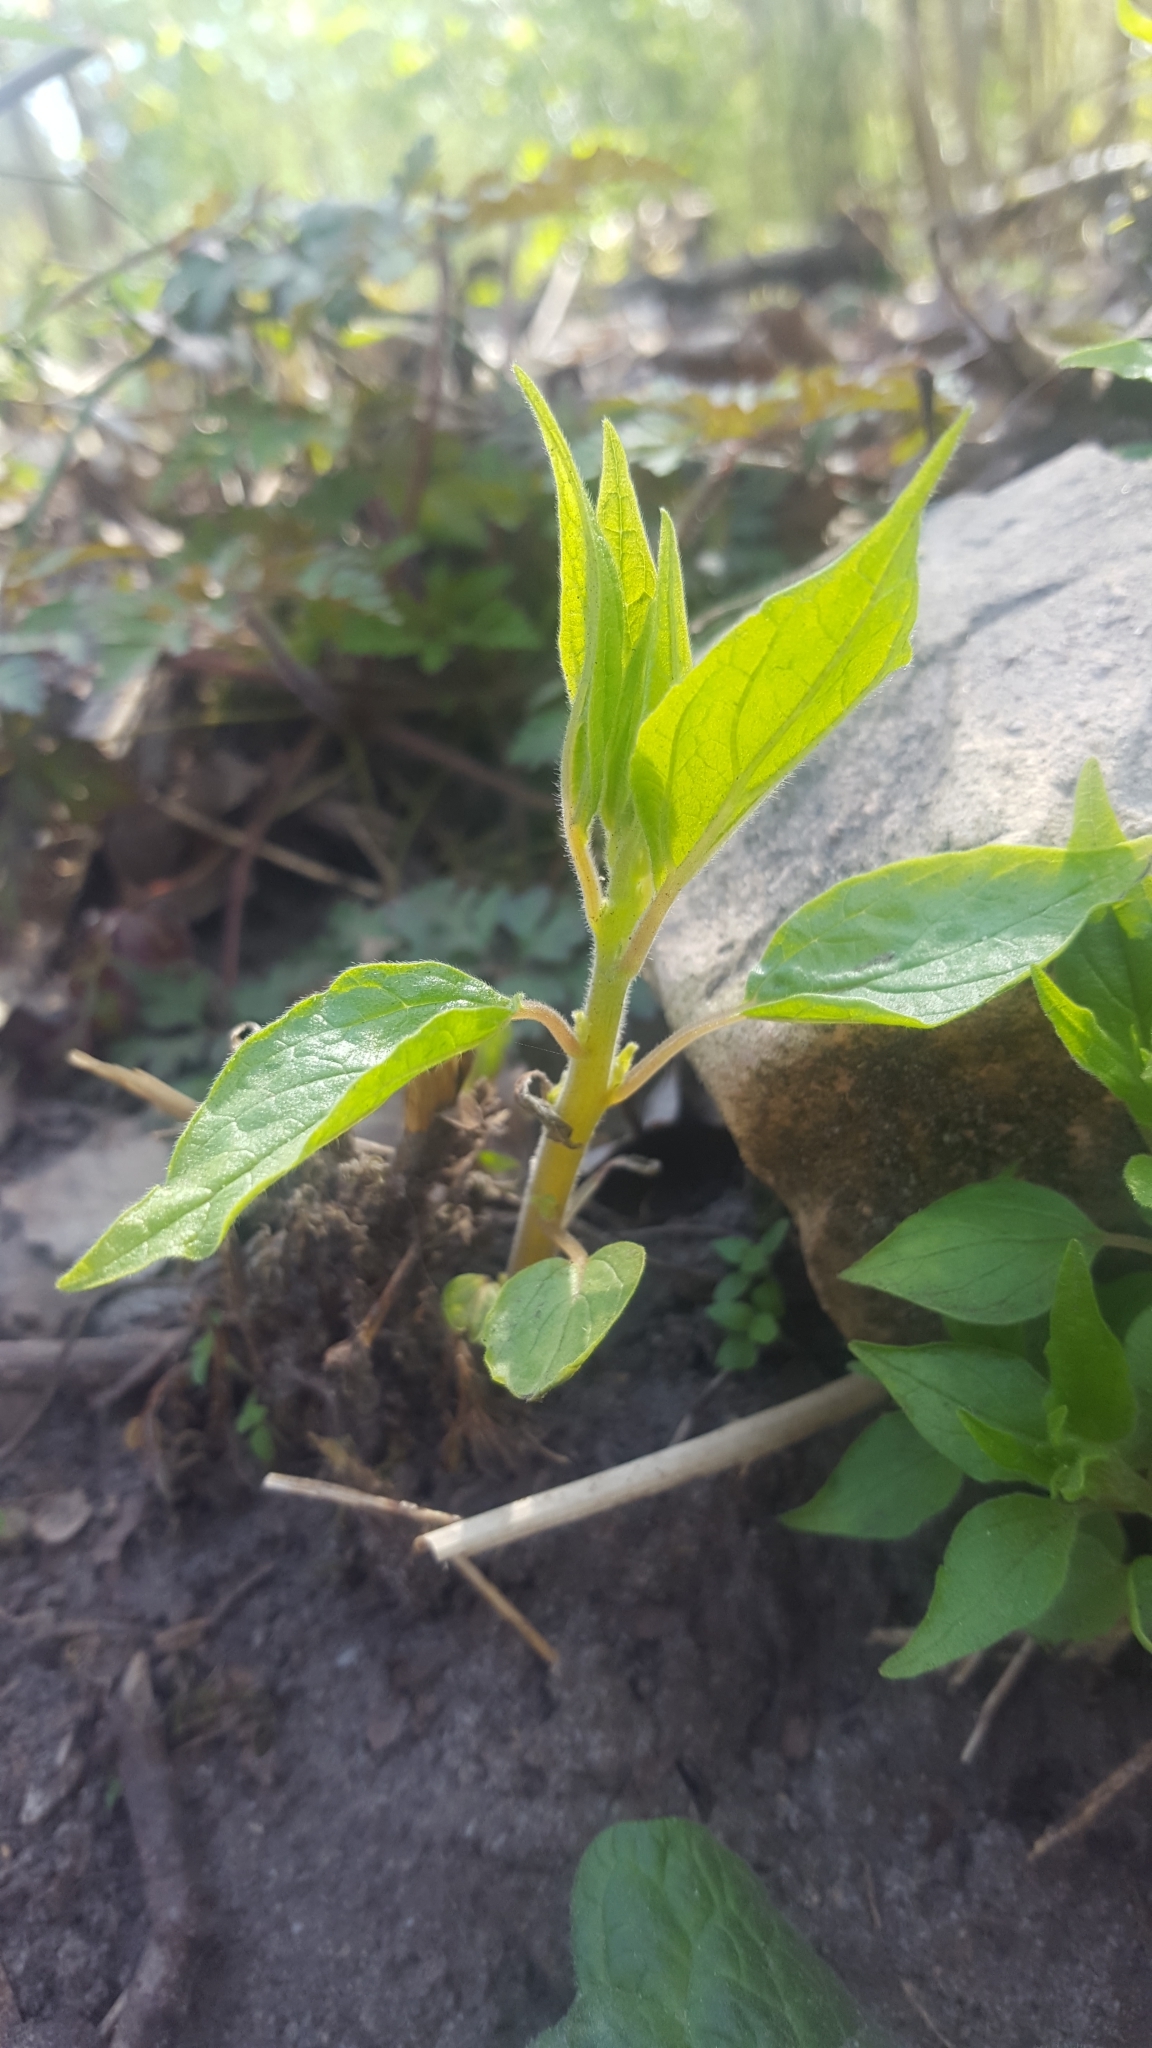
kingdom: Plantae
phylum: Tracheophyta
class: Magnoliopsida
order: Rosales
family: Urticaceae
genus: Parietaria
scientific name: Parietaria officinalis
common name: Eastern pellitory-of-the-wall
